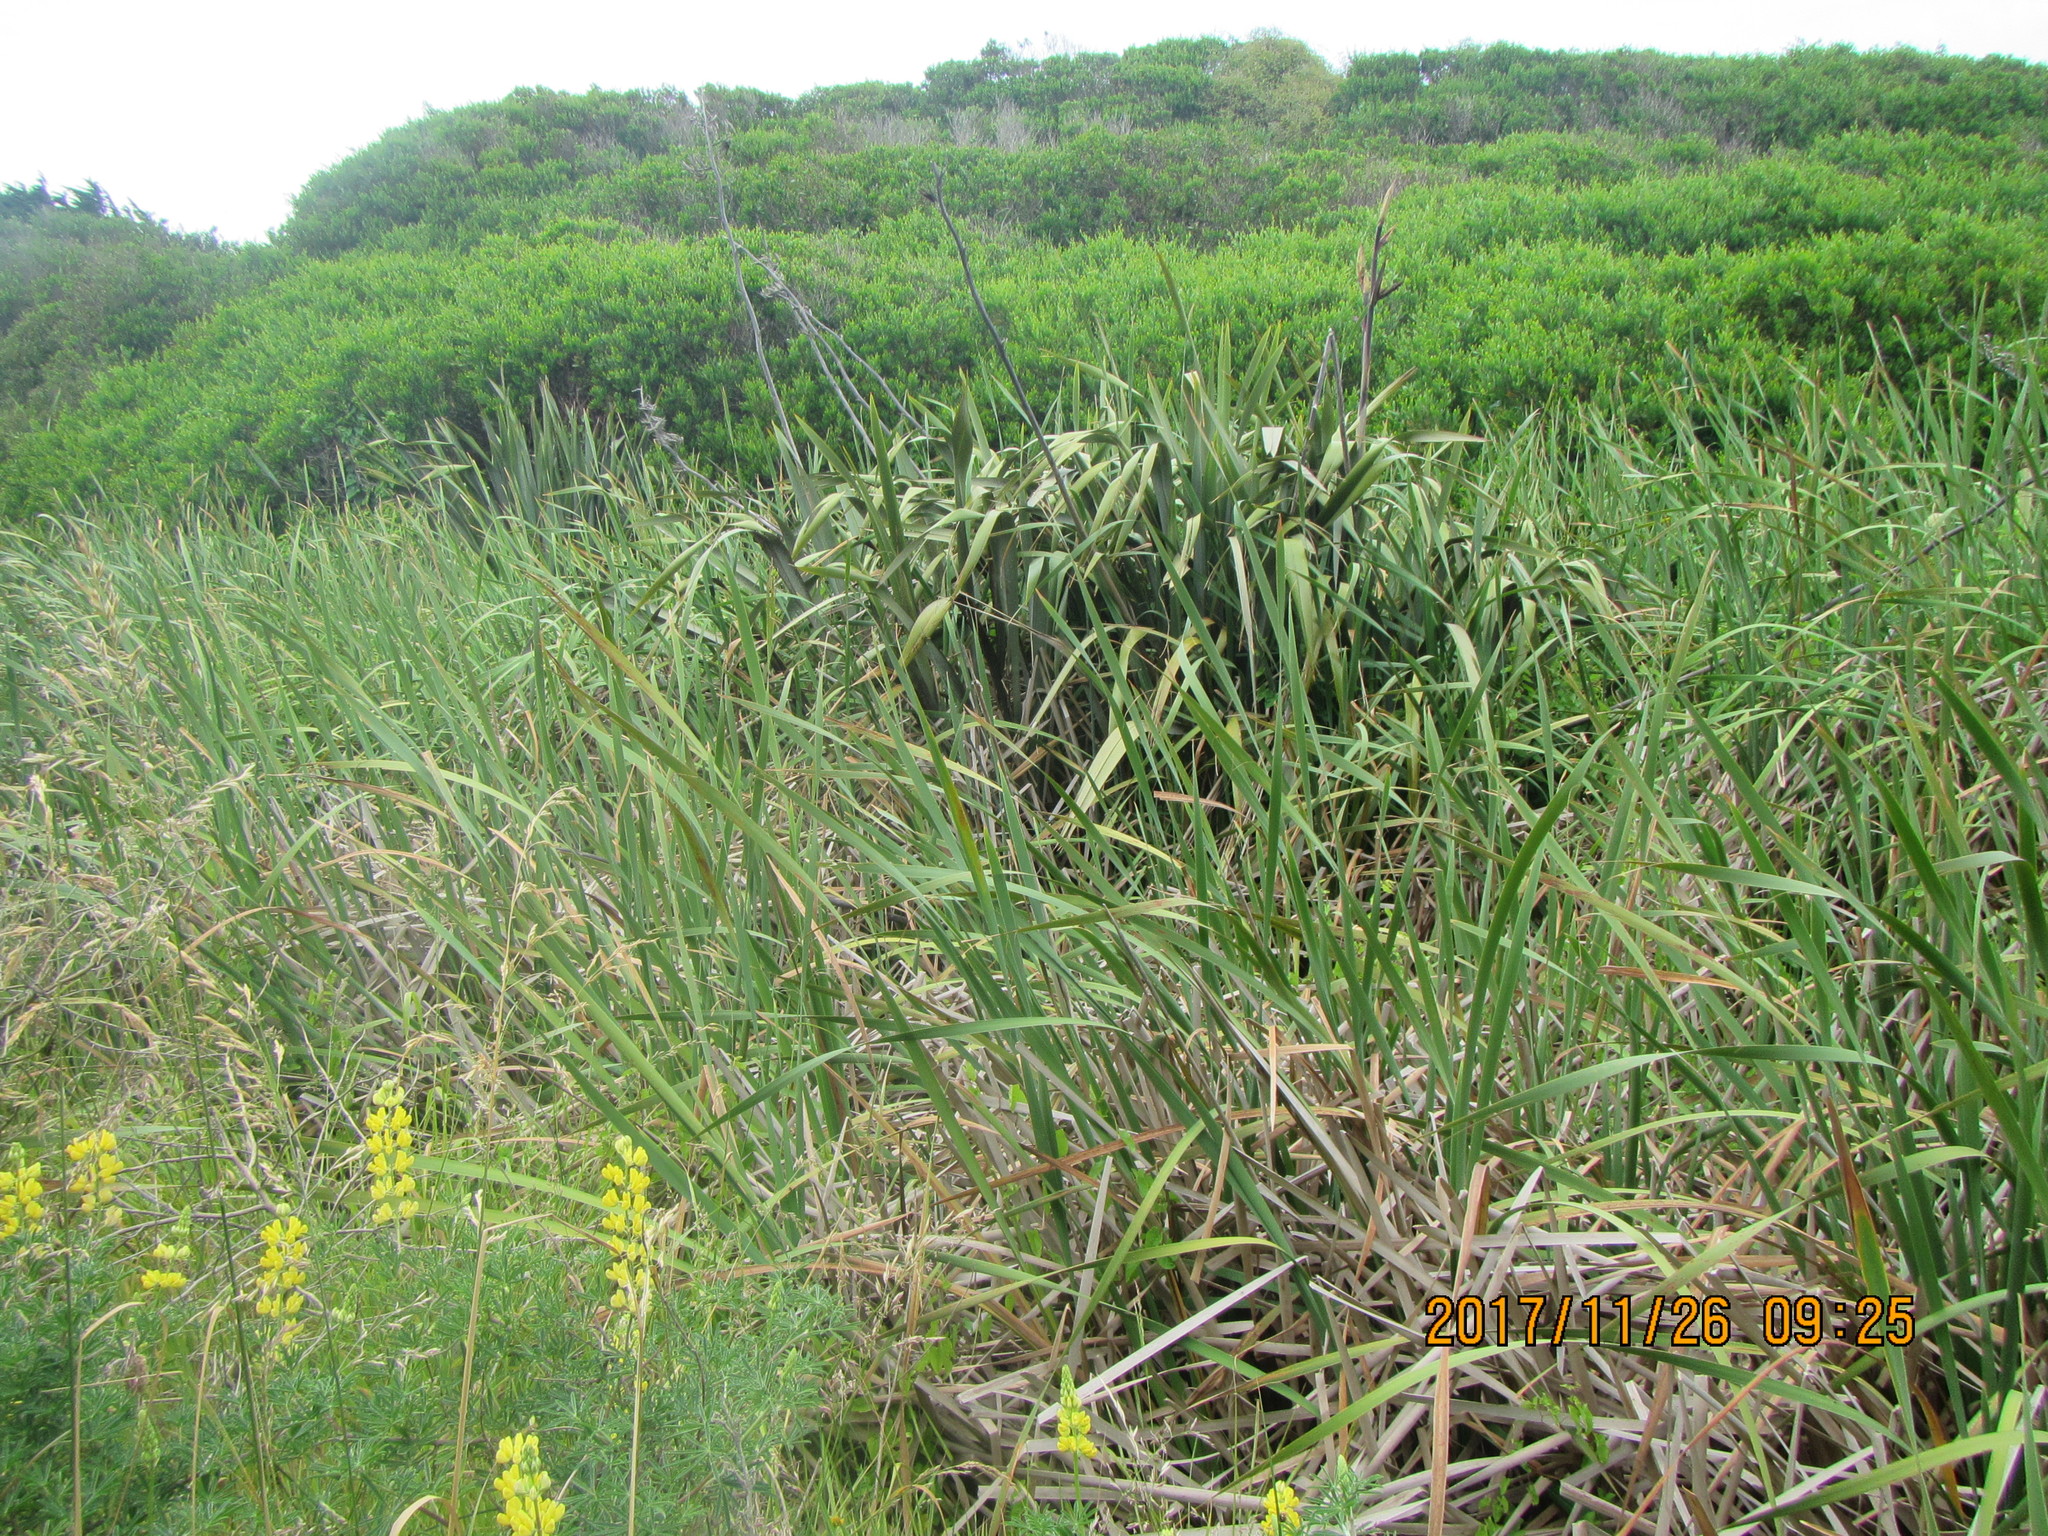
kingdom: Plantae
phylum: Tracheophyta
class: Liliopsida
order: Poales
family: Typhaceae
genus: Typha
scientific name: Typha orientalis
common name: Bullrush
